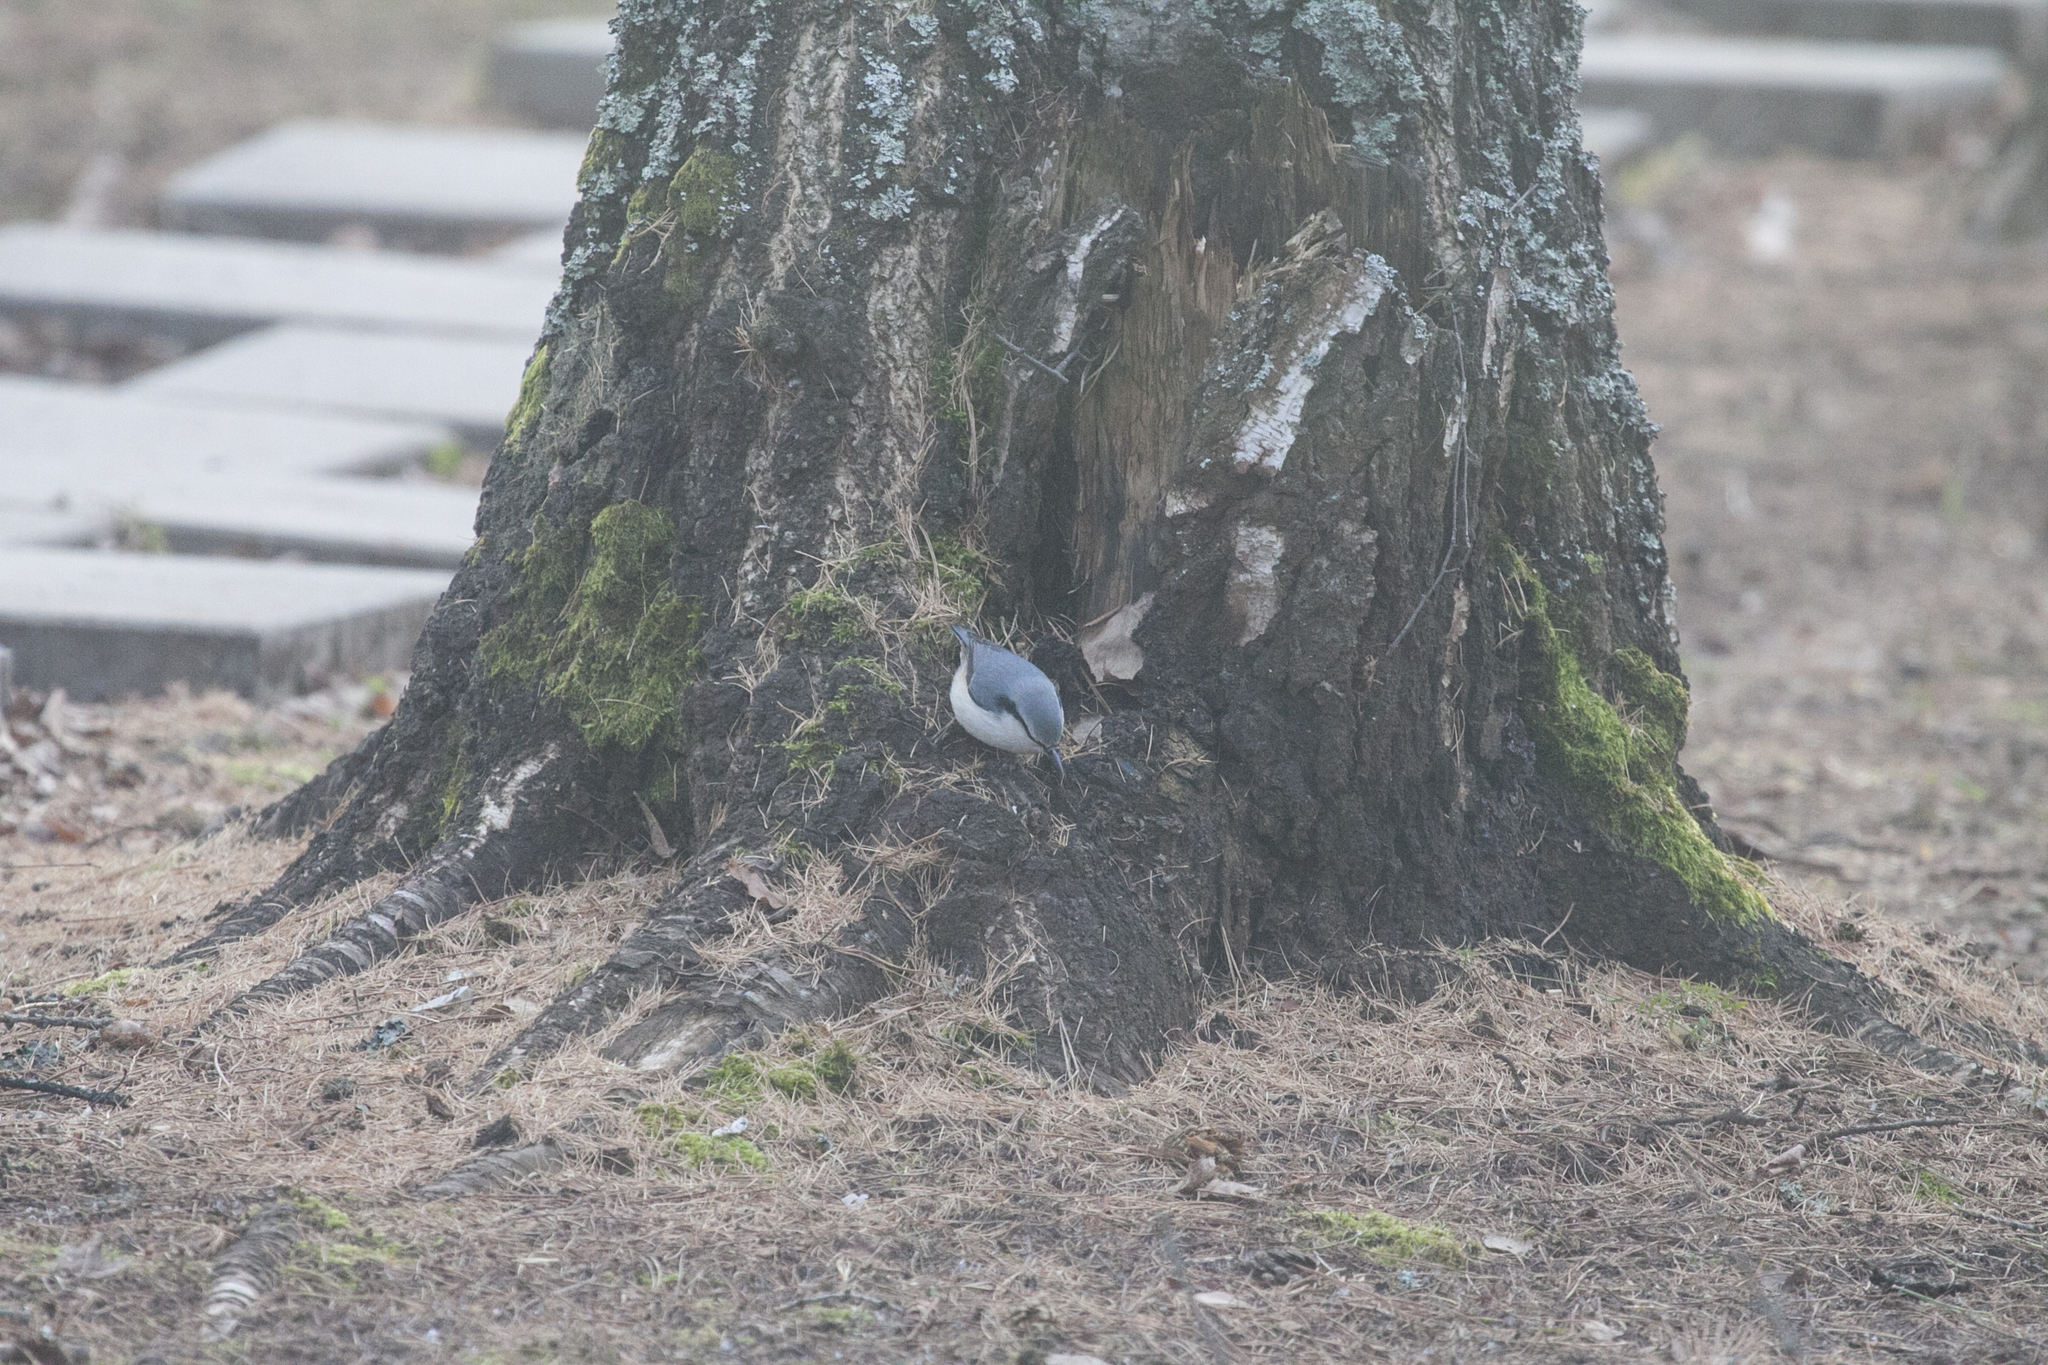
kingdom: Animalia
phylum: Chordata
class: Aves
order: Passeriformes
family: Sittidae
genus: Sitta
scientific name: Sitta europaea
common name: Eurasian nuthatch
